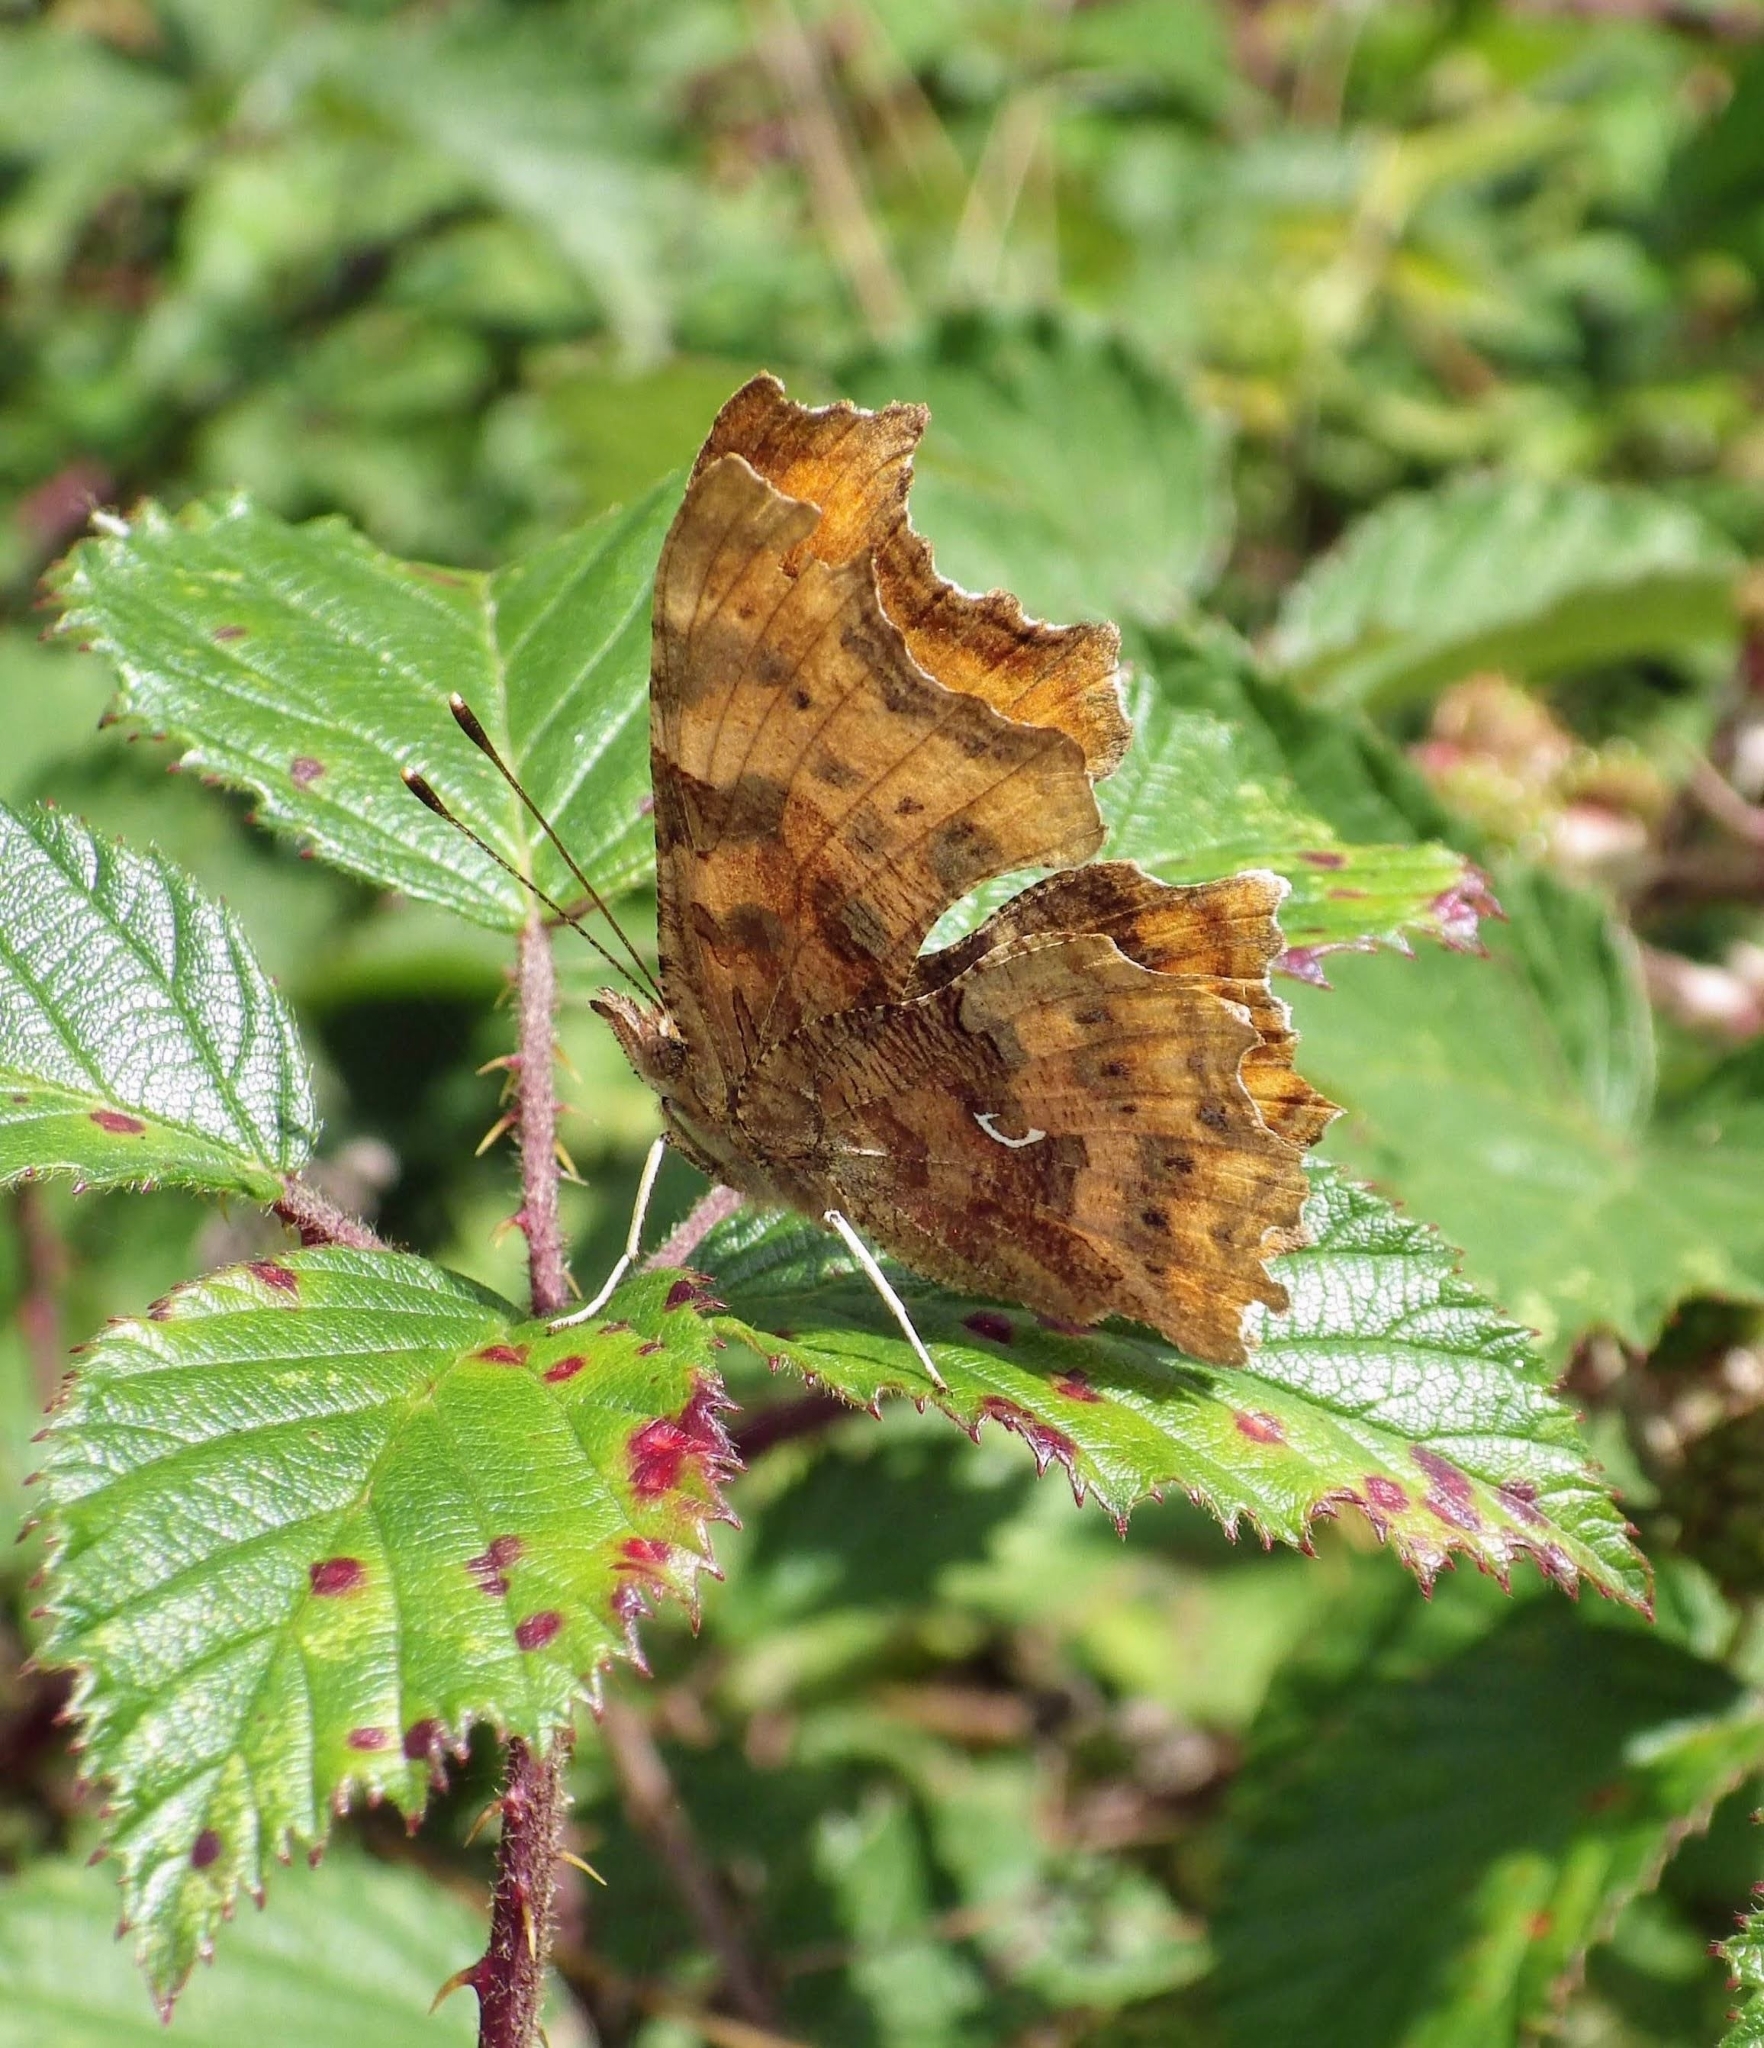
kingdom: Animalia
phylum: Arthropoda
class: Insecta
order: Lepidoptera
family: Nymphalidae
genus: Polygonia
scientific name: Polygonia c-album
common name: Comma
